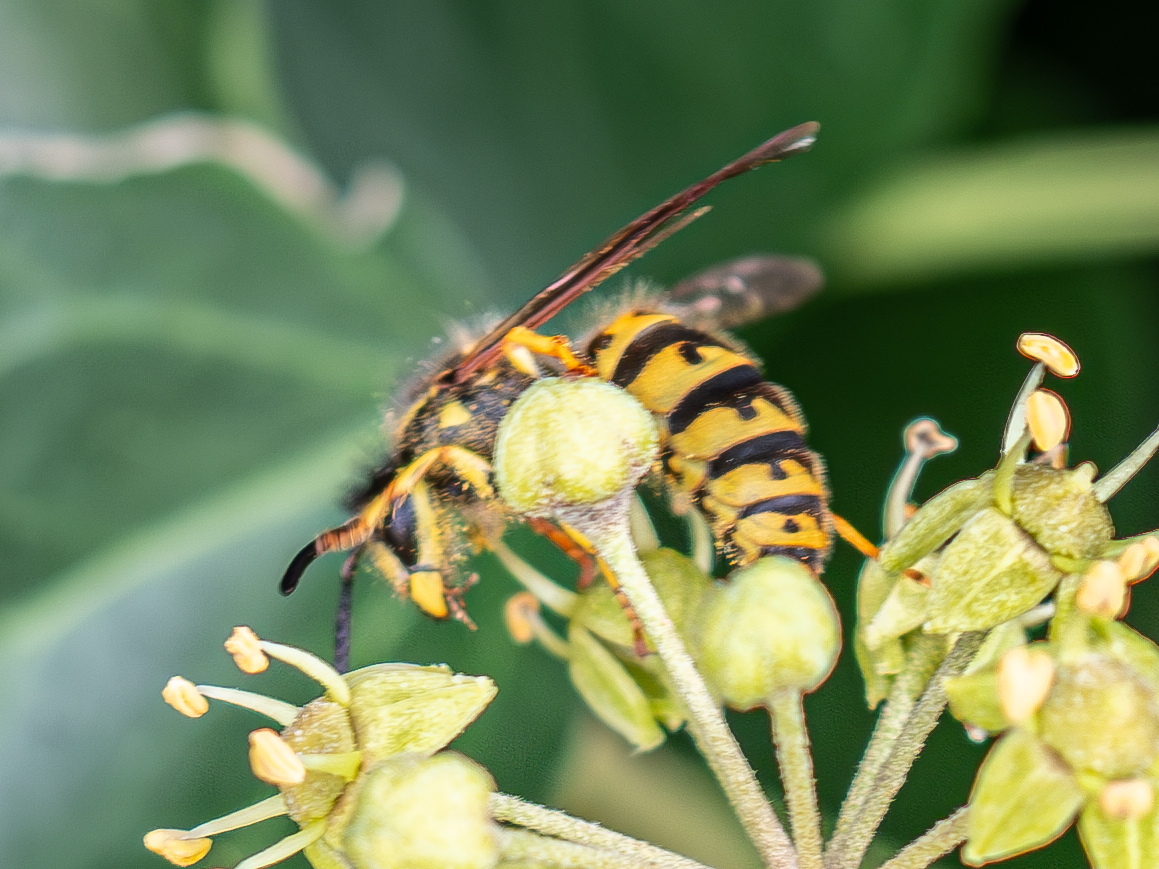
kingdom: Animalia
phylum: Arthropoda
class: Insecta
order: Hymenoptera
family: Vespidae
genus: Vespula
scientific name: Vespula germanica
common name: German wasp
